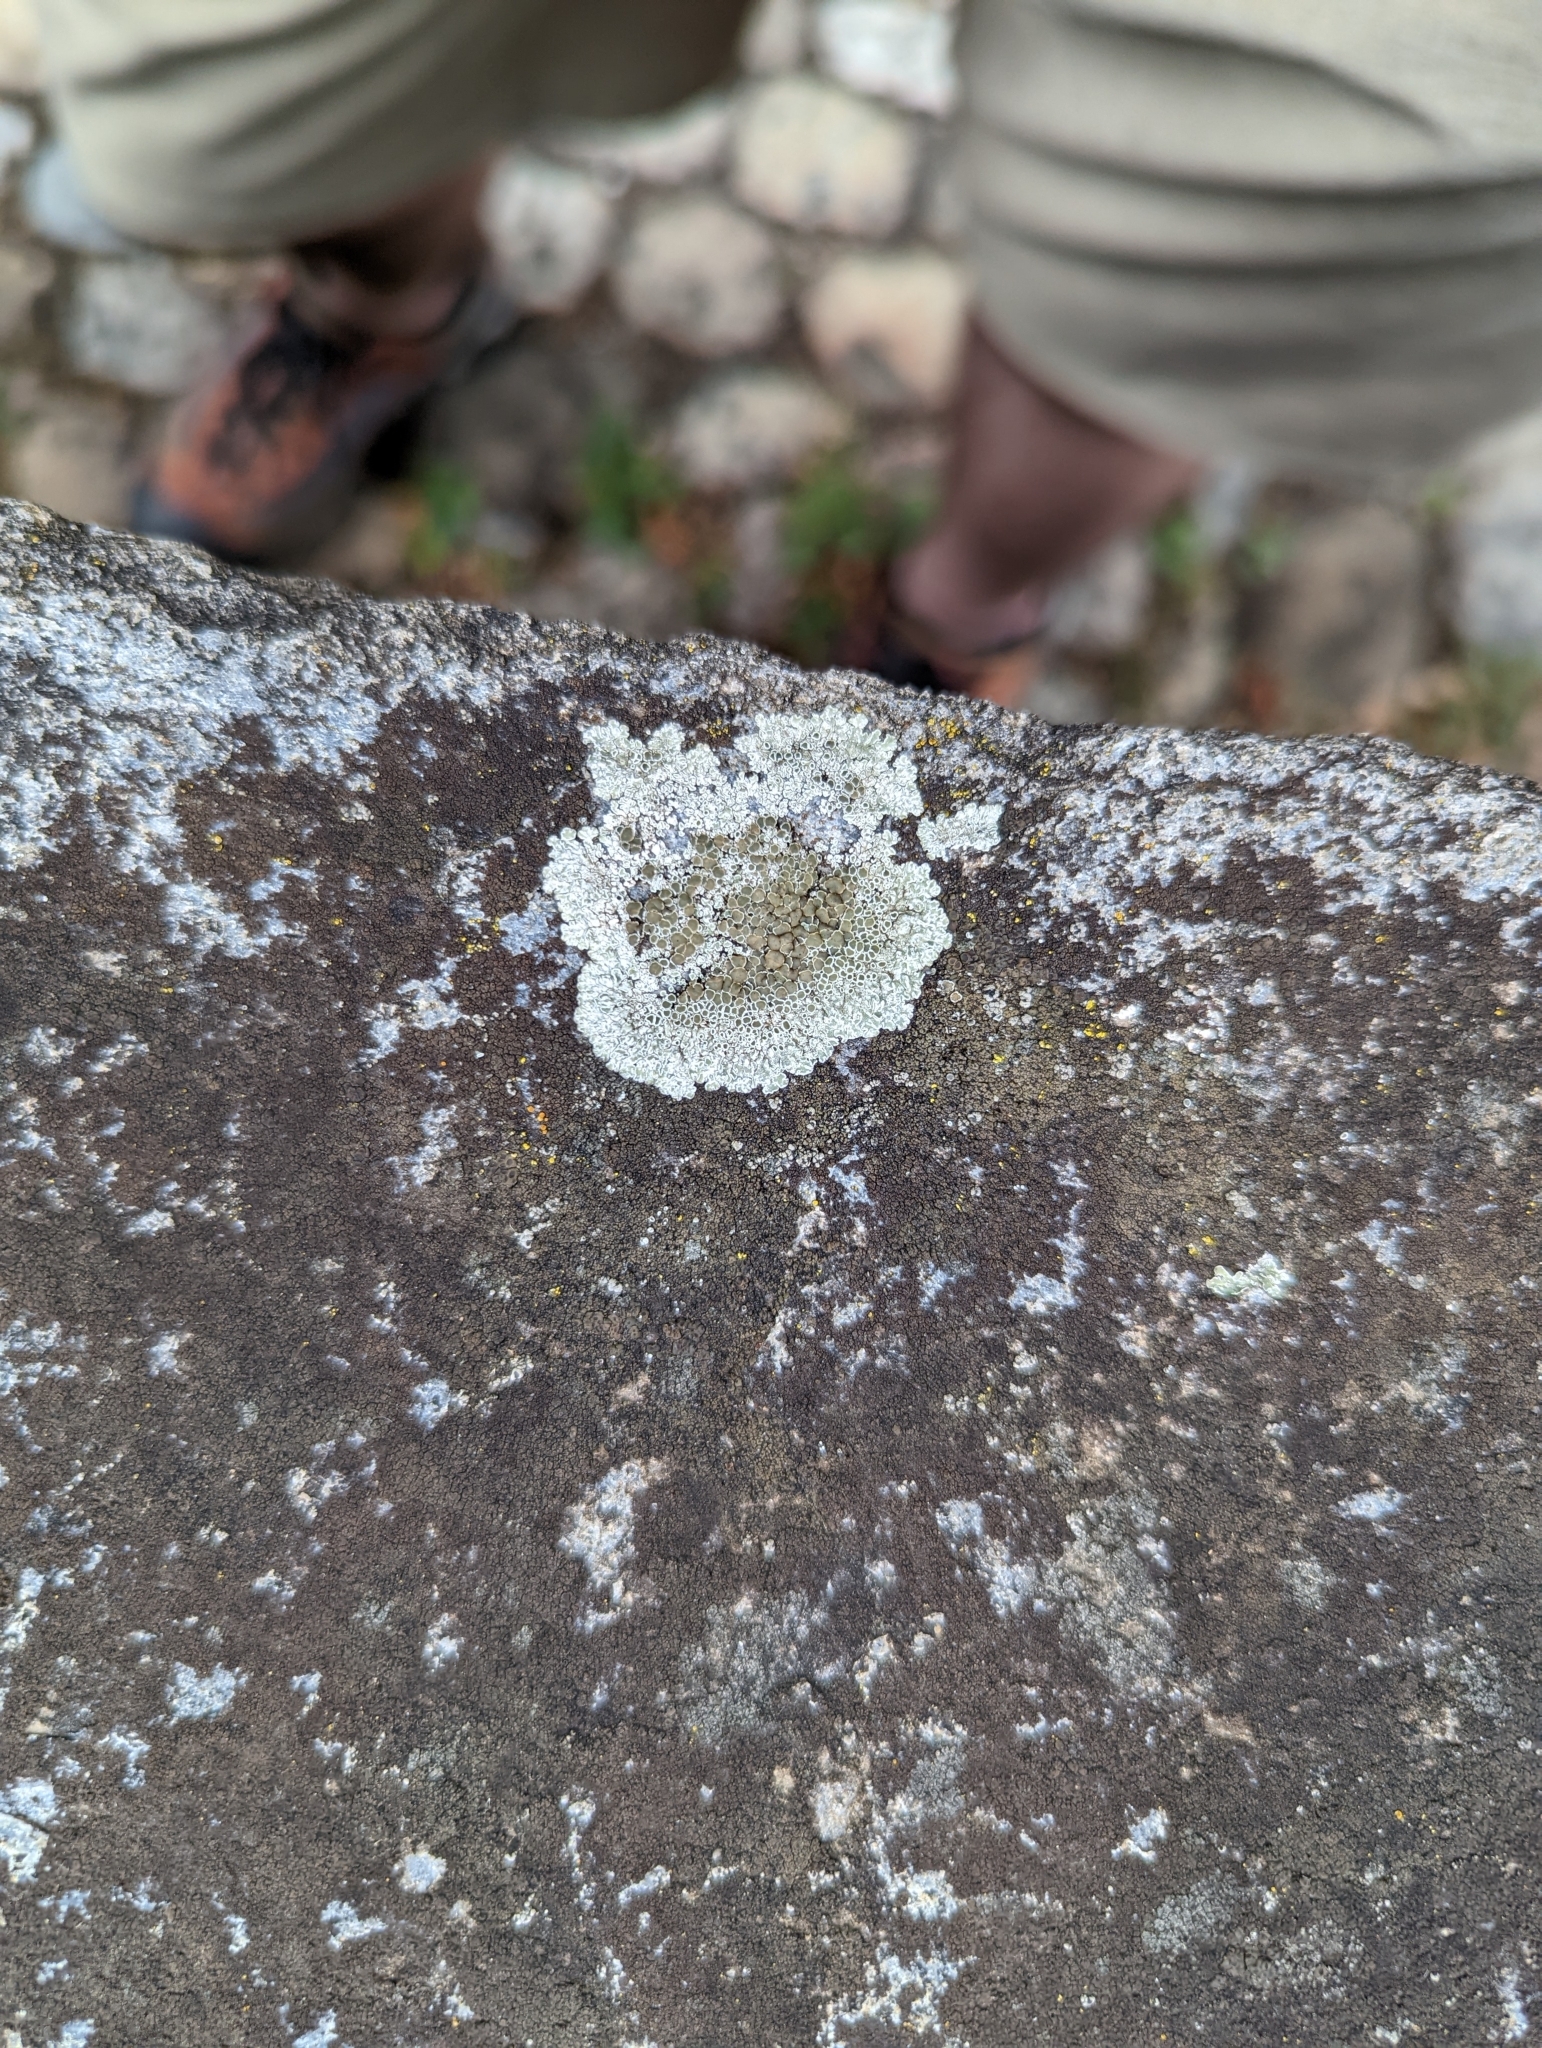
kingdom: Fungi
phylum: Ascomycota
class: Lecanoromycetes
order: Lecanorales
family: Lecanoraceae
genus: Protoparmeliopsis
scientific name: Protoparmeliopsis muralis
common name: Stonewall rim lichen
